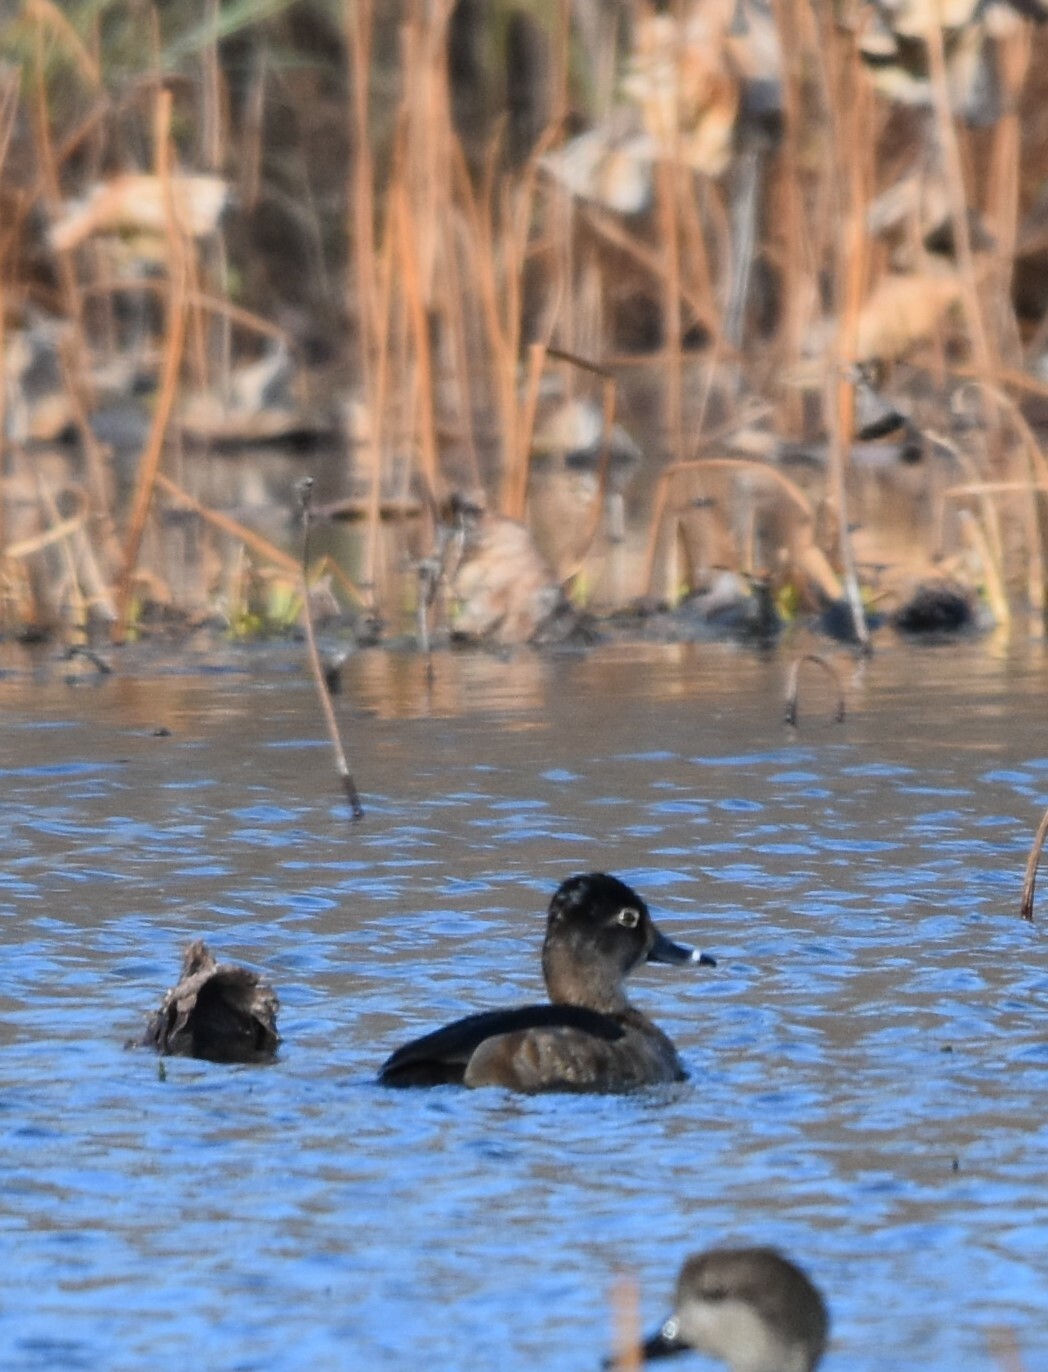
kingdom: Animalia
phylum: Chordata
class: Aves
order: Anseriformes
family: Anatidae
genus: Aythya
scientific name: Aythya collaris
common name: Ring-necked duck
